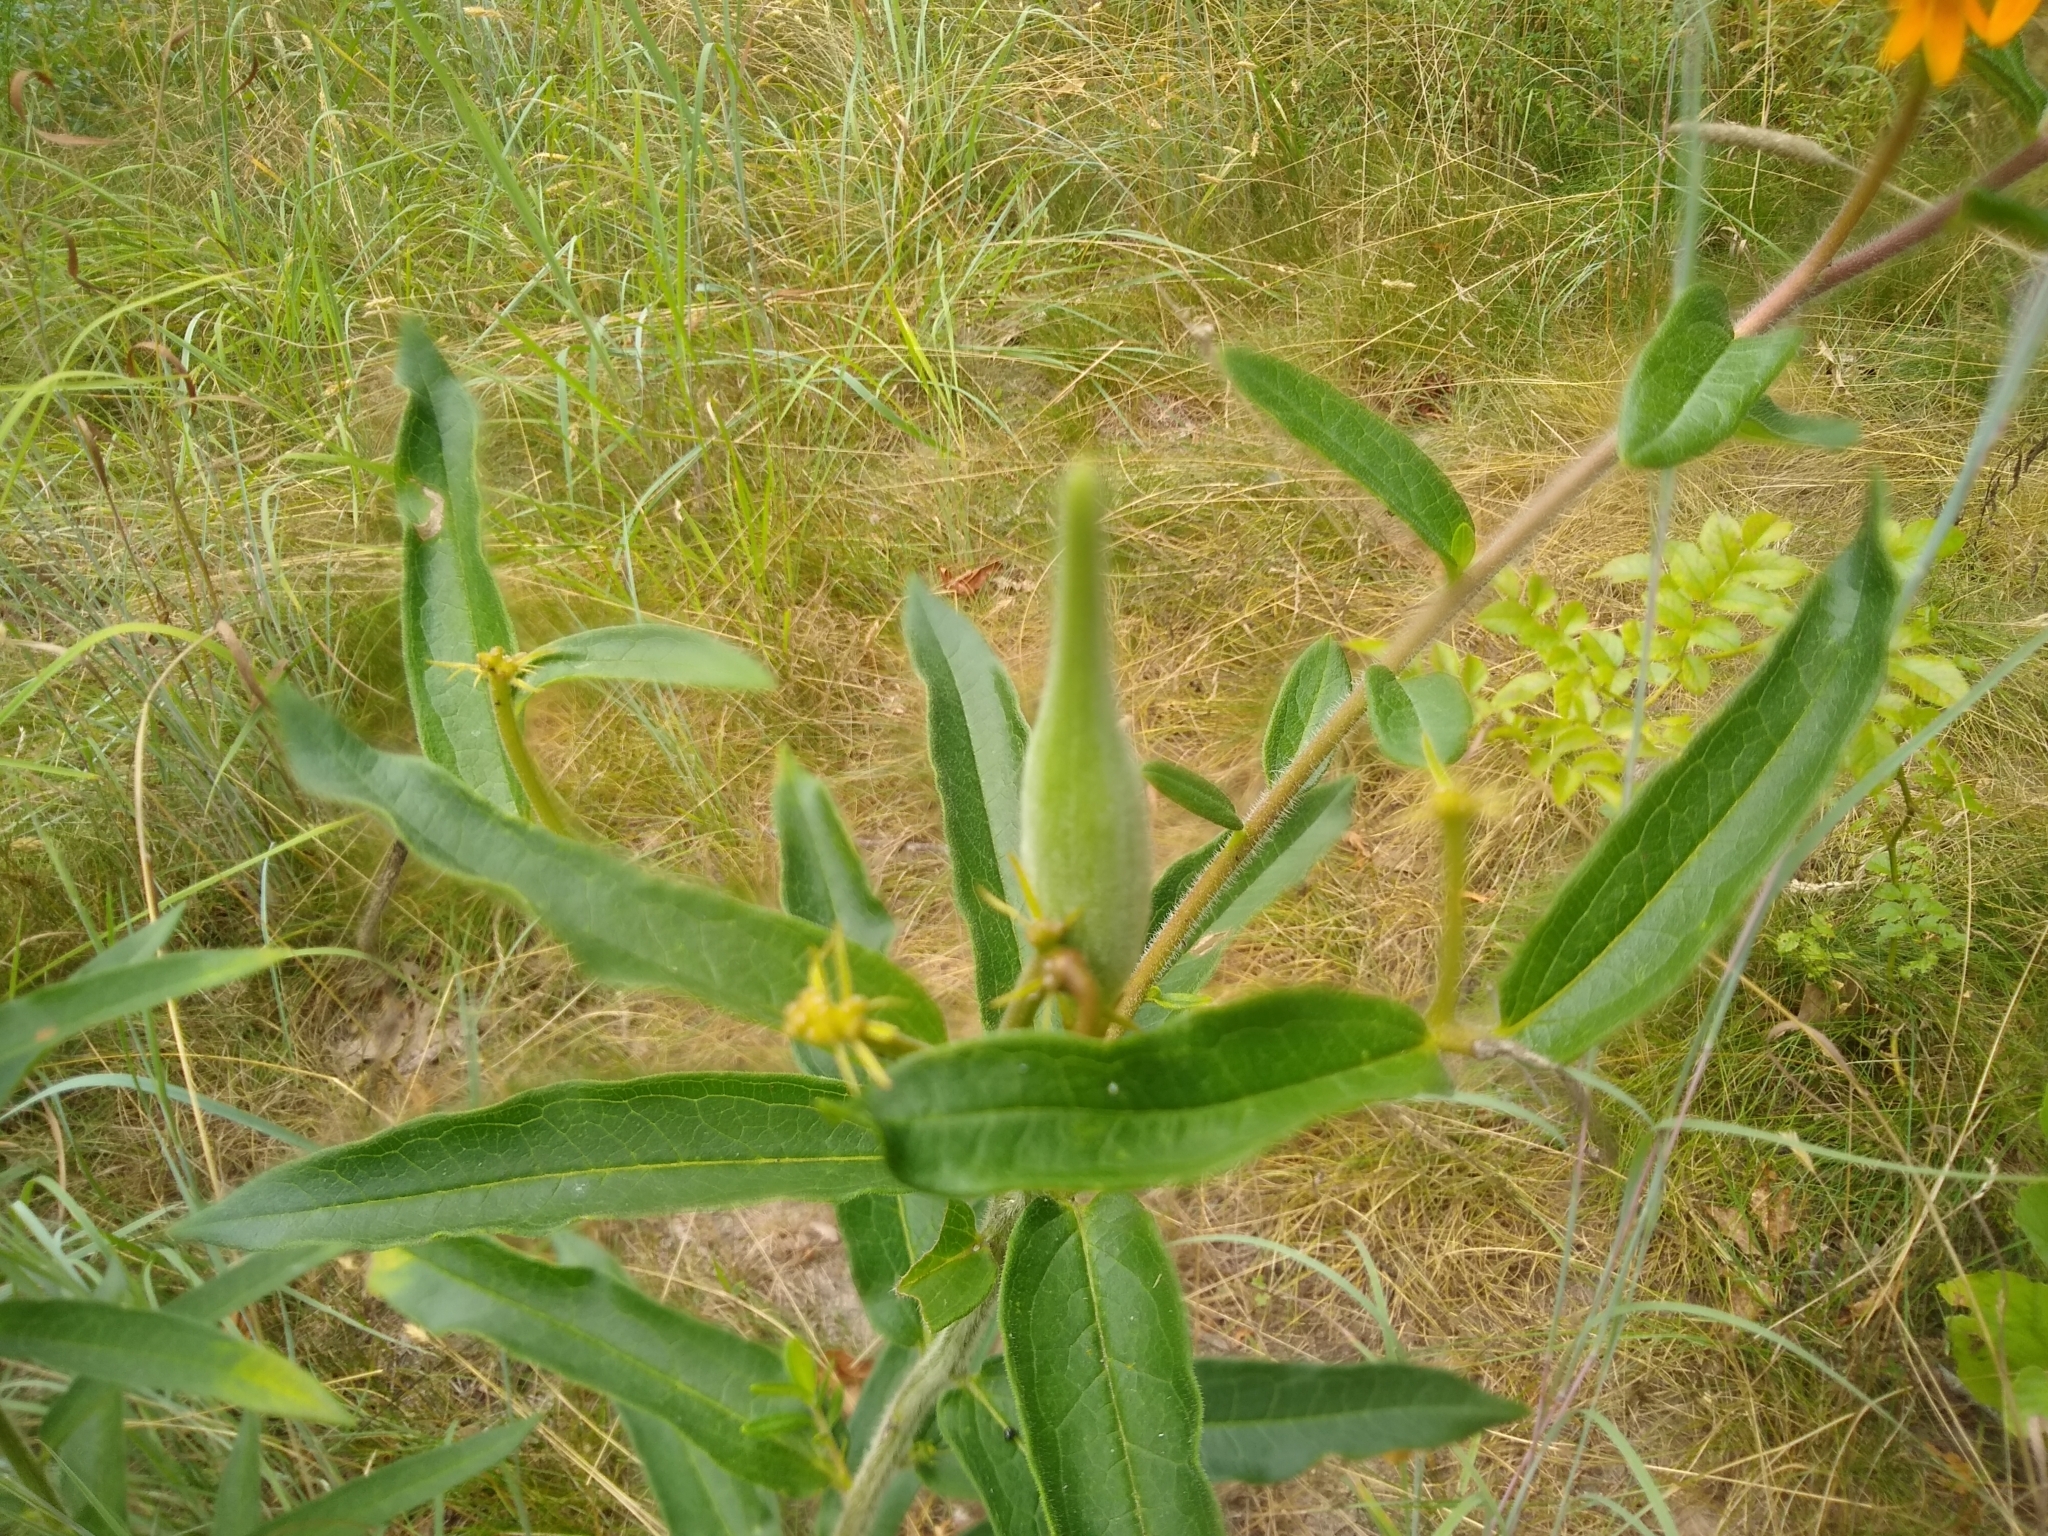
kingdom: Plantae
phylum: Tracheophyta
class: Magnoliopsida
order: Gentianales
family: Apocynaceae
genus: Asclepias
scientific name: Asclepias tuberosa
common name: Butterfly milkweed
